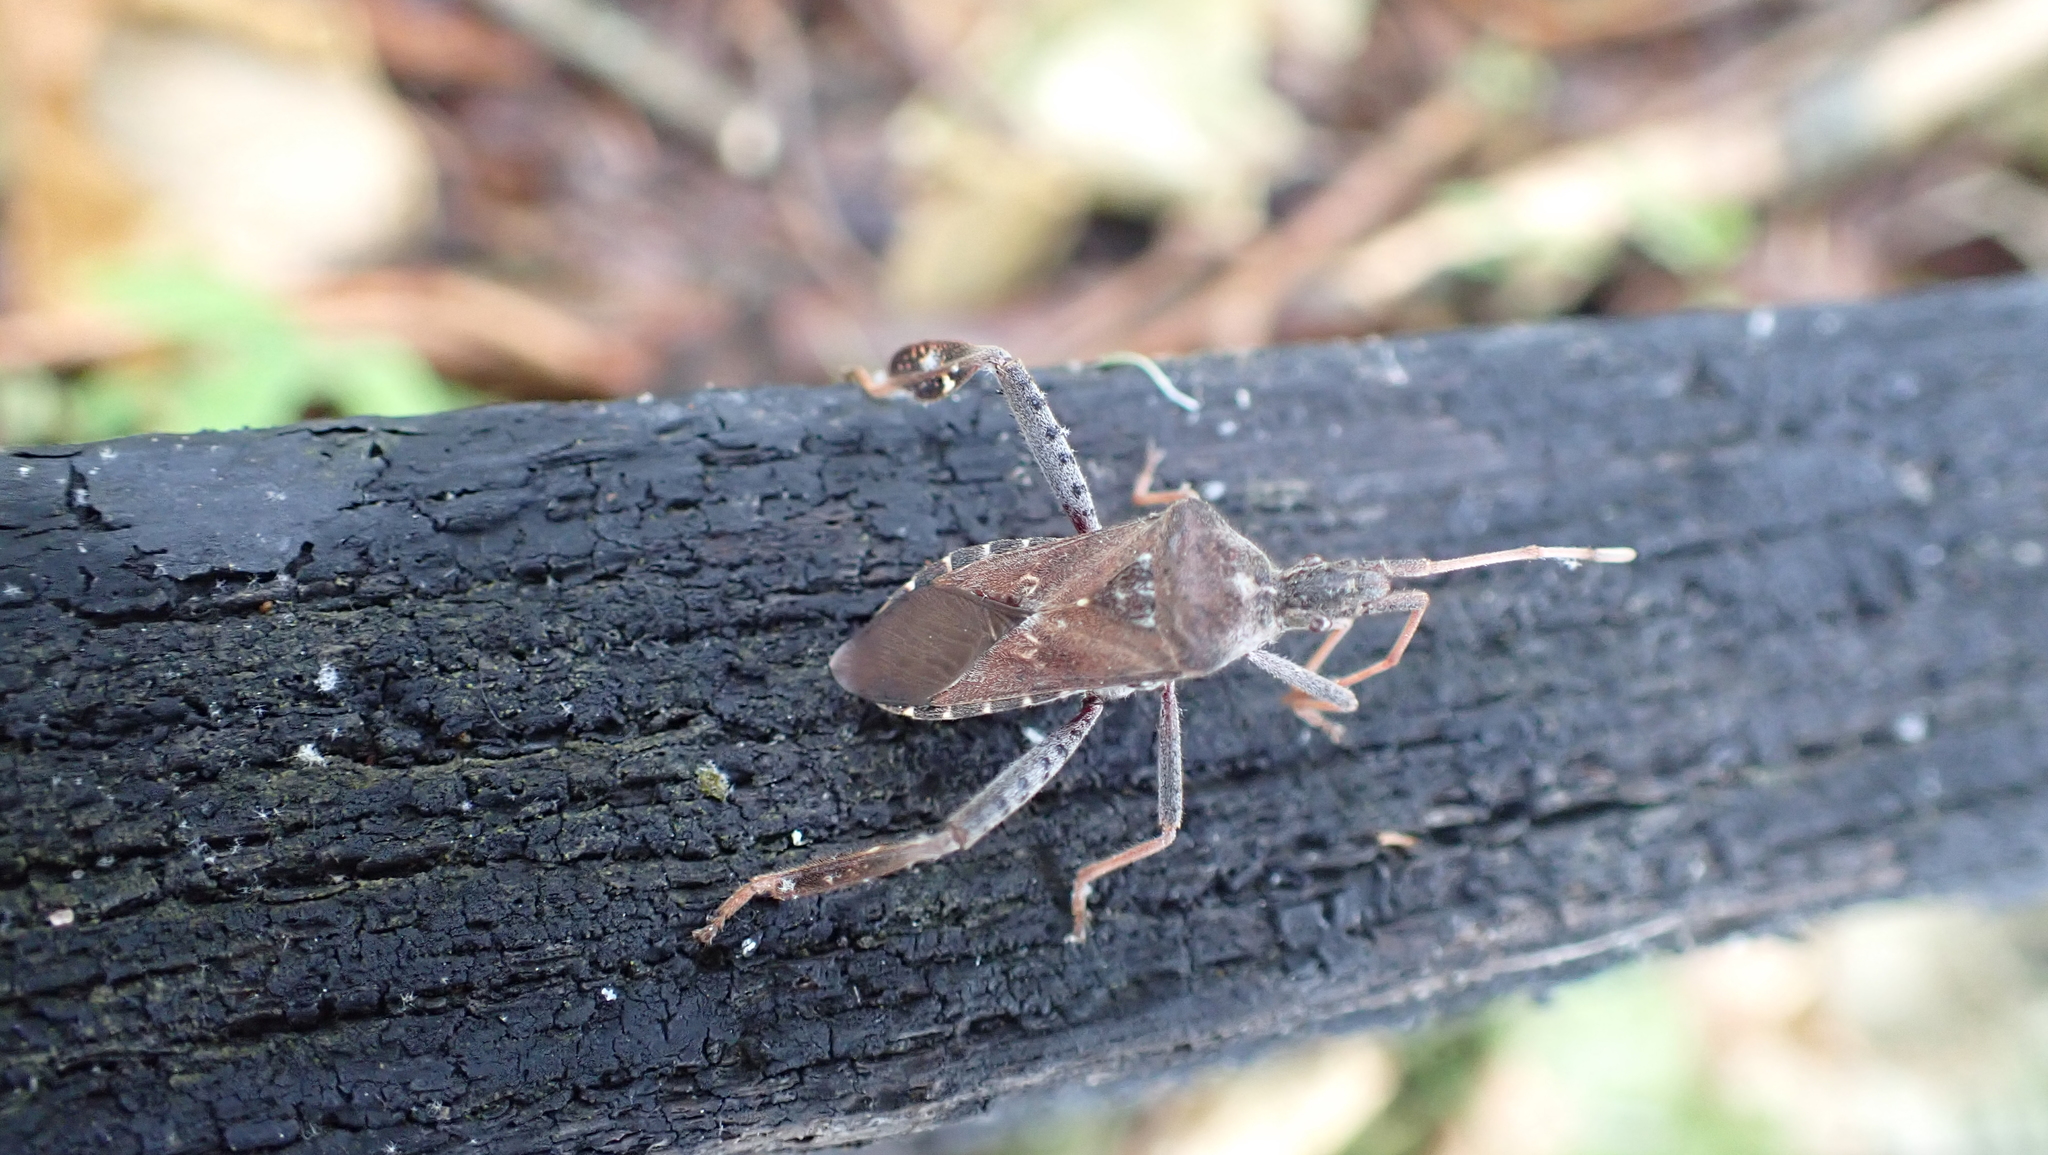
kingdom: Animalia
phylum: Arthropoda
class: Insecta
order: Hemiptera
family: Coreidae
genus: Leptoglossus
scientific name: Leptoglossus corculus
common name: Southern pine seed bug
